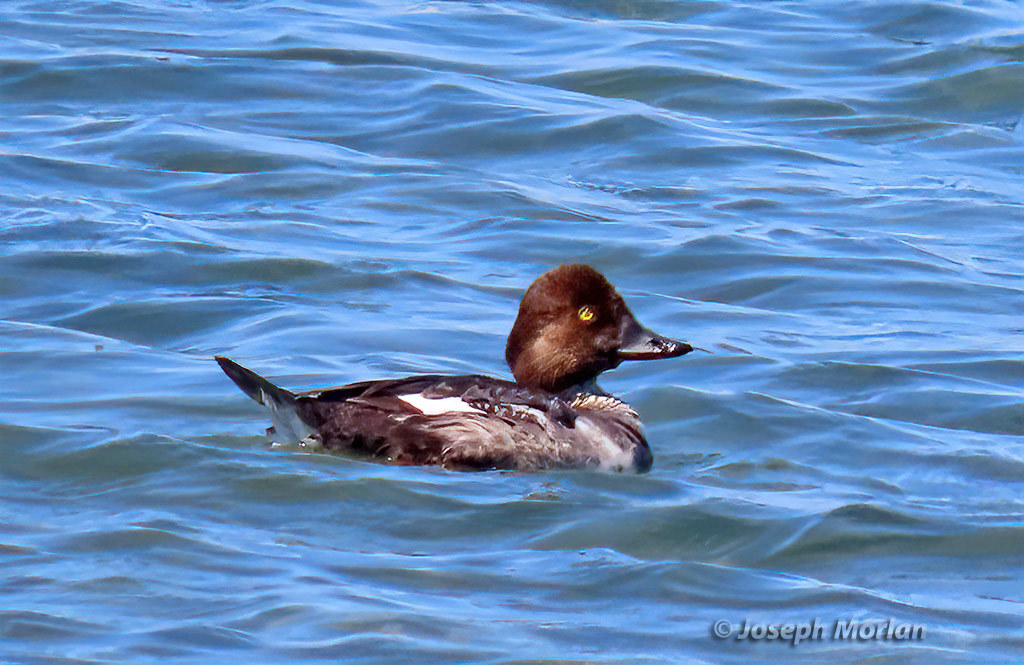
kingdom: Animalia
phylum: Chordata
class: Aves
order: Anseriformes
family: Anatidae
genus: Bucephala
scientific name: Bucephala clangula
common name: Common goldeneye
